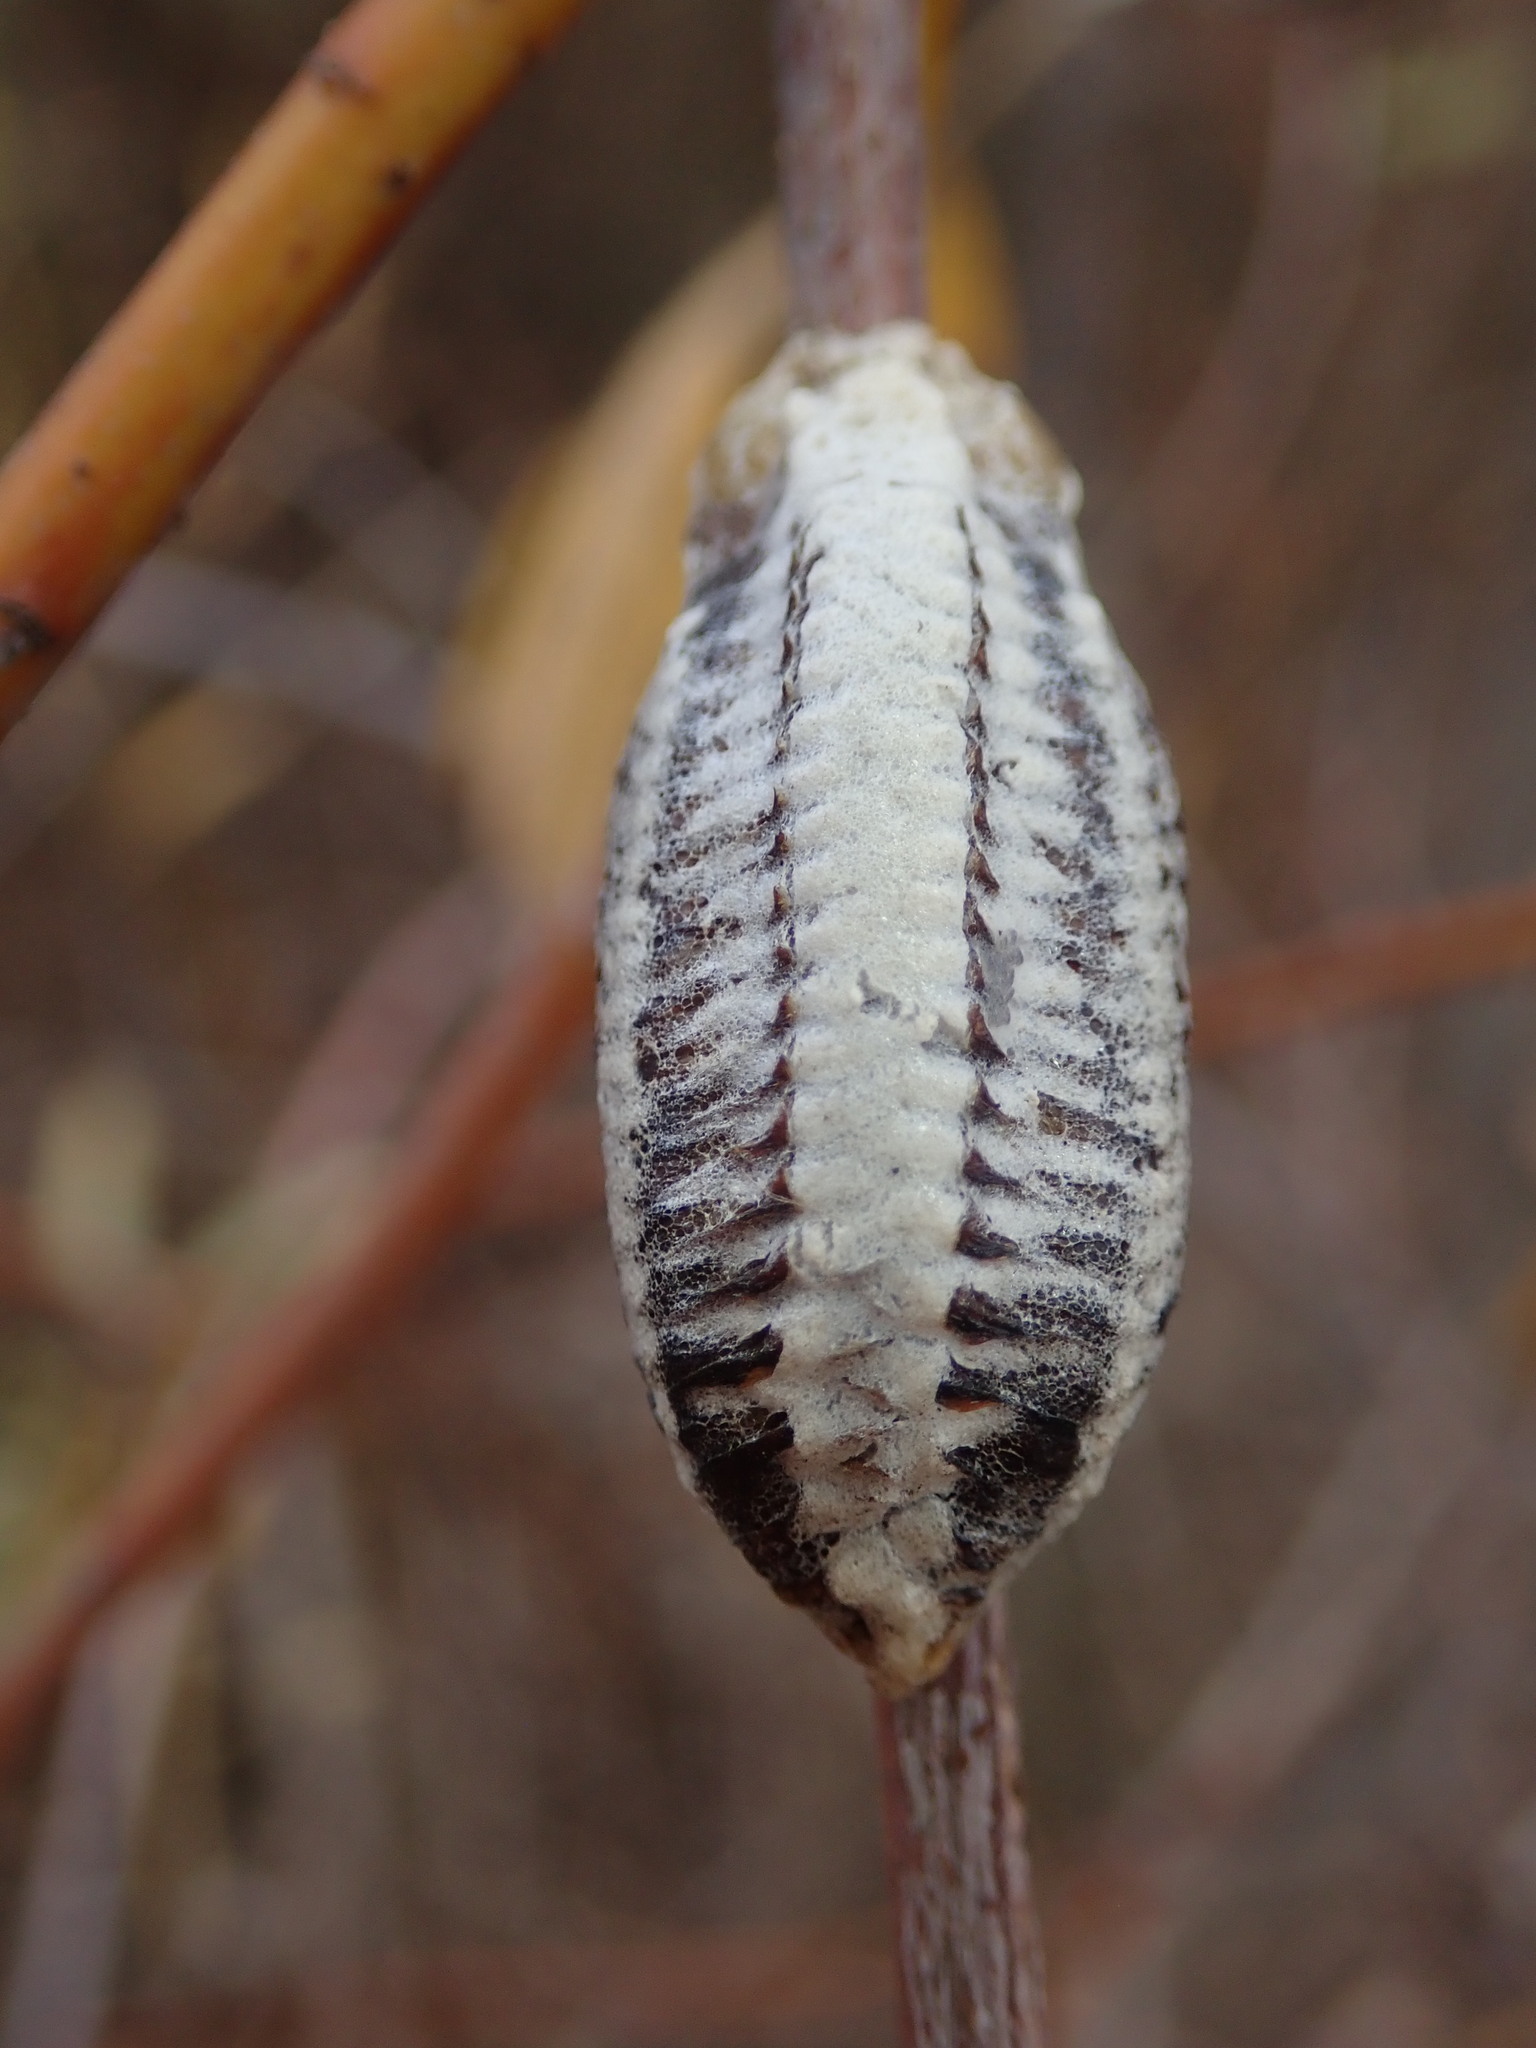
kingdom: Animalia
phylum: Arthropoda
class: Insecta
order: Mantodea
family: Mantidae
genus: Stagmomantis
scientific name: Stagmomantis limbata
